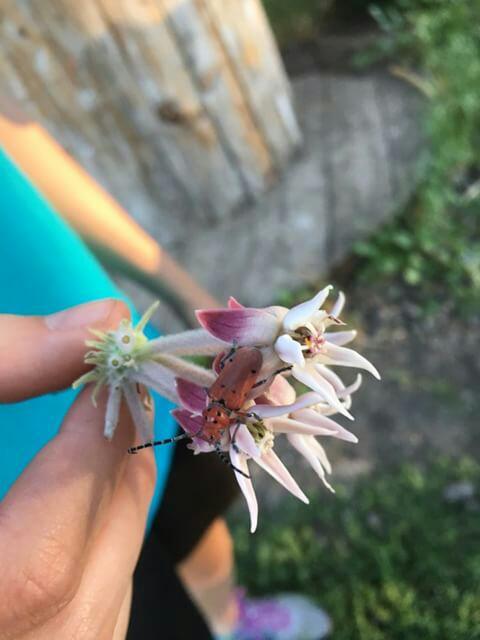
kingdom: Animalia
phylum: Arthropoda
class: Insecta
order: Coleoptera
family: Cerambycidae
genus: Tetraopes
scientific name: Tetraopes femoratus
